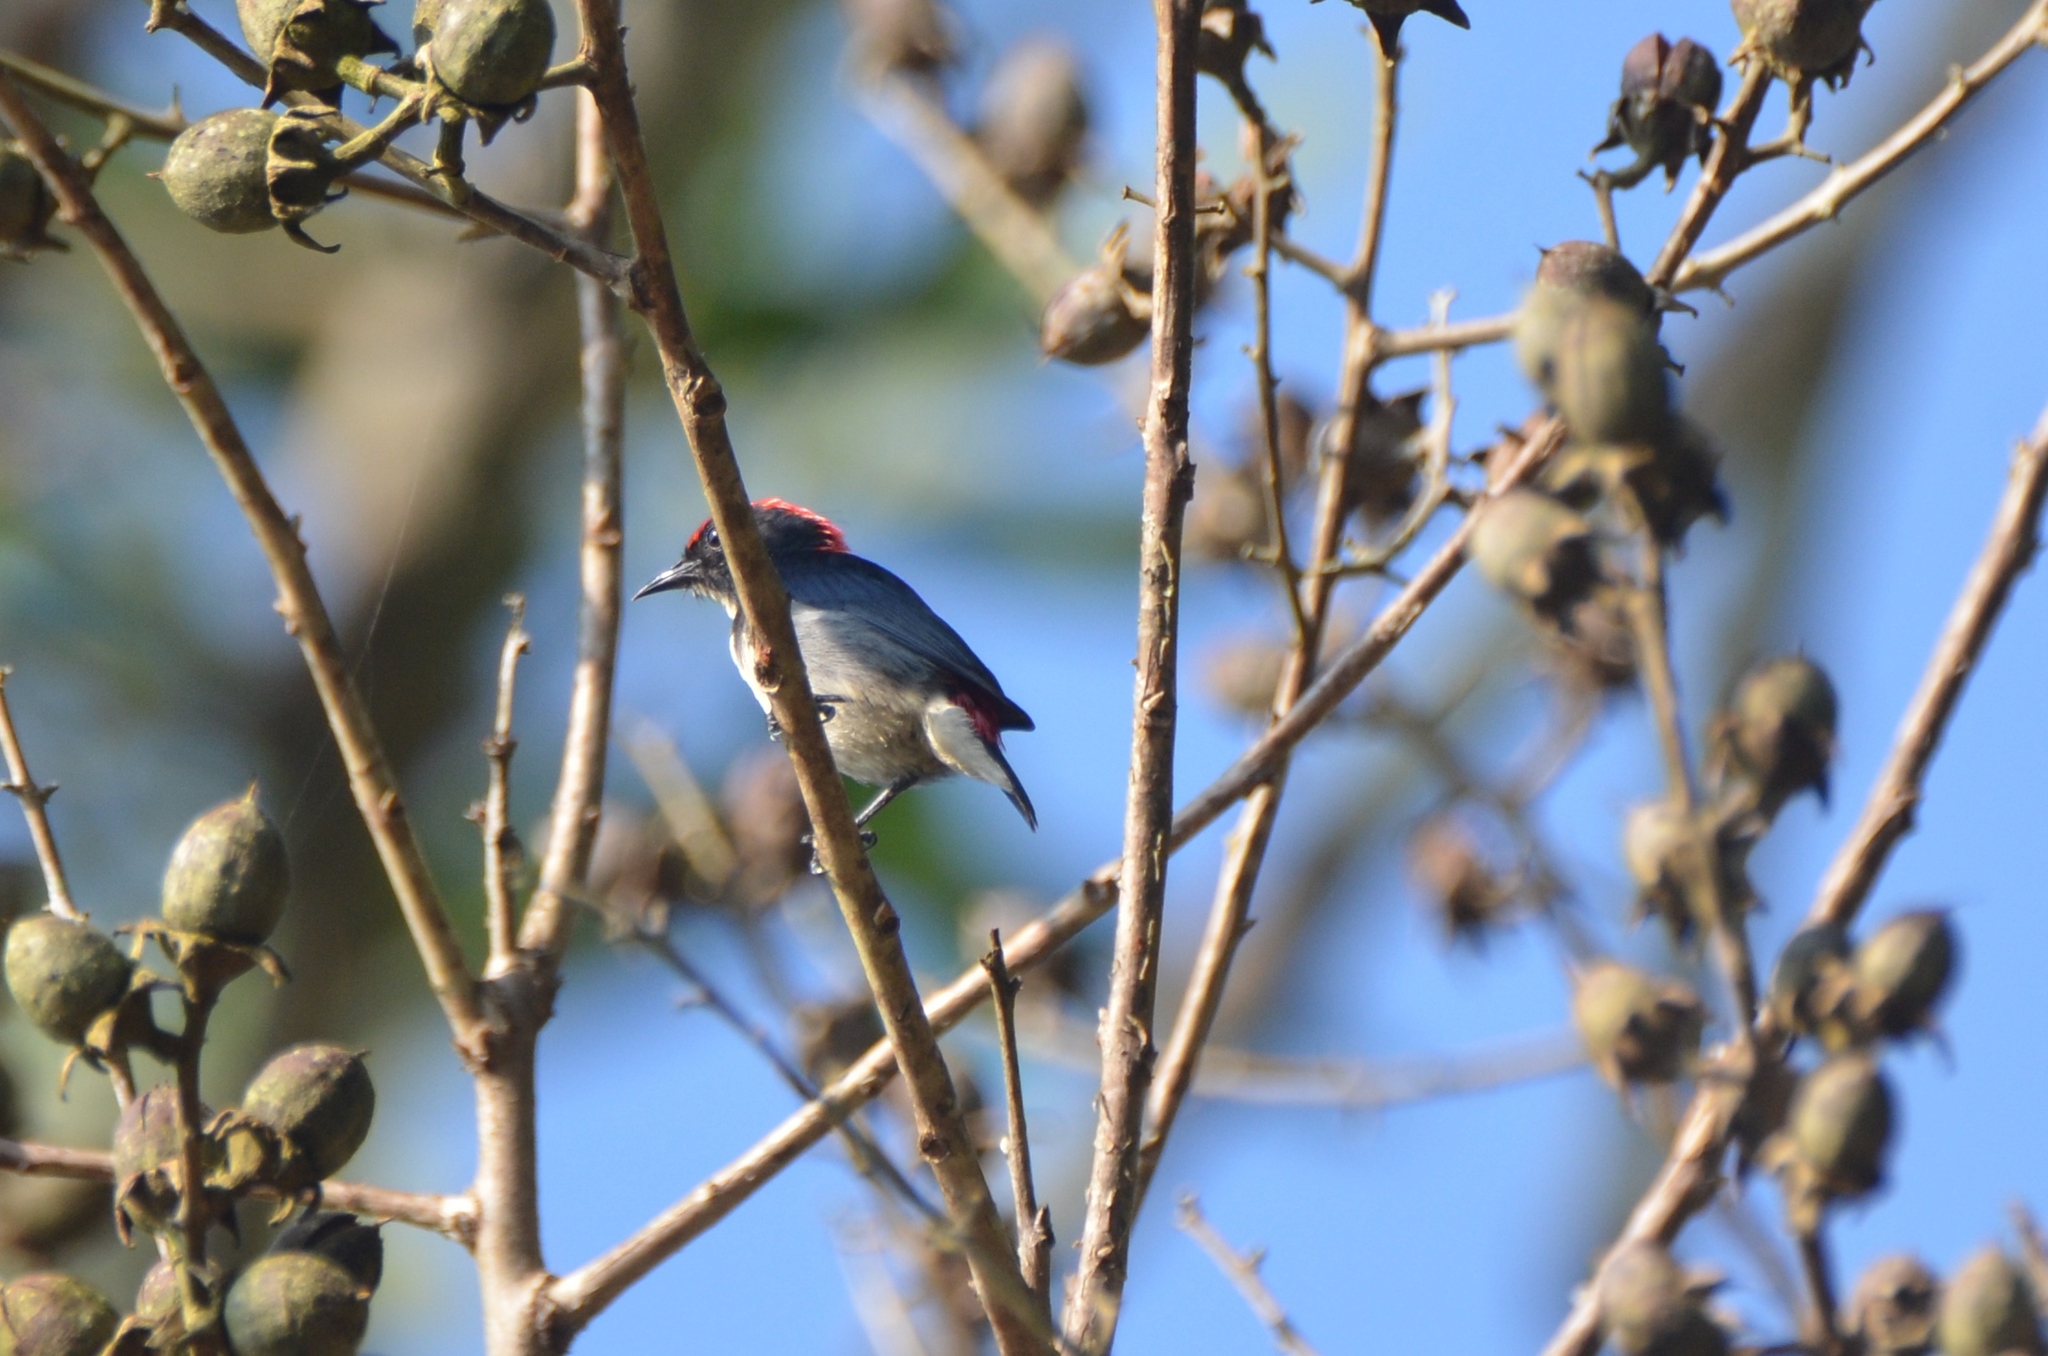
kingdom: Animalia
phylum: Chordata
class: Aves
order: Passeriformes
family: Dicaeidae
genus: Dicaeum
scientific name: Dicaeum cruentatum
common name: Scarlet-backed flowerpecker
